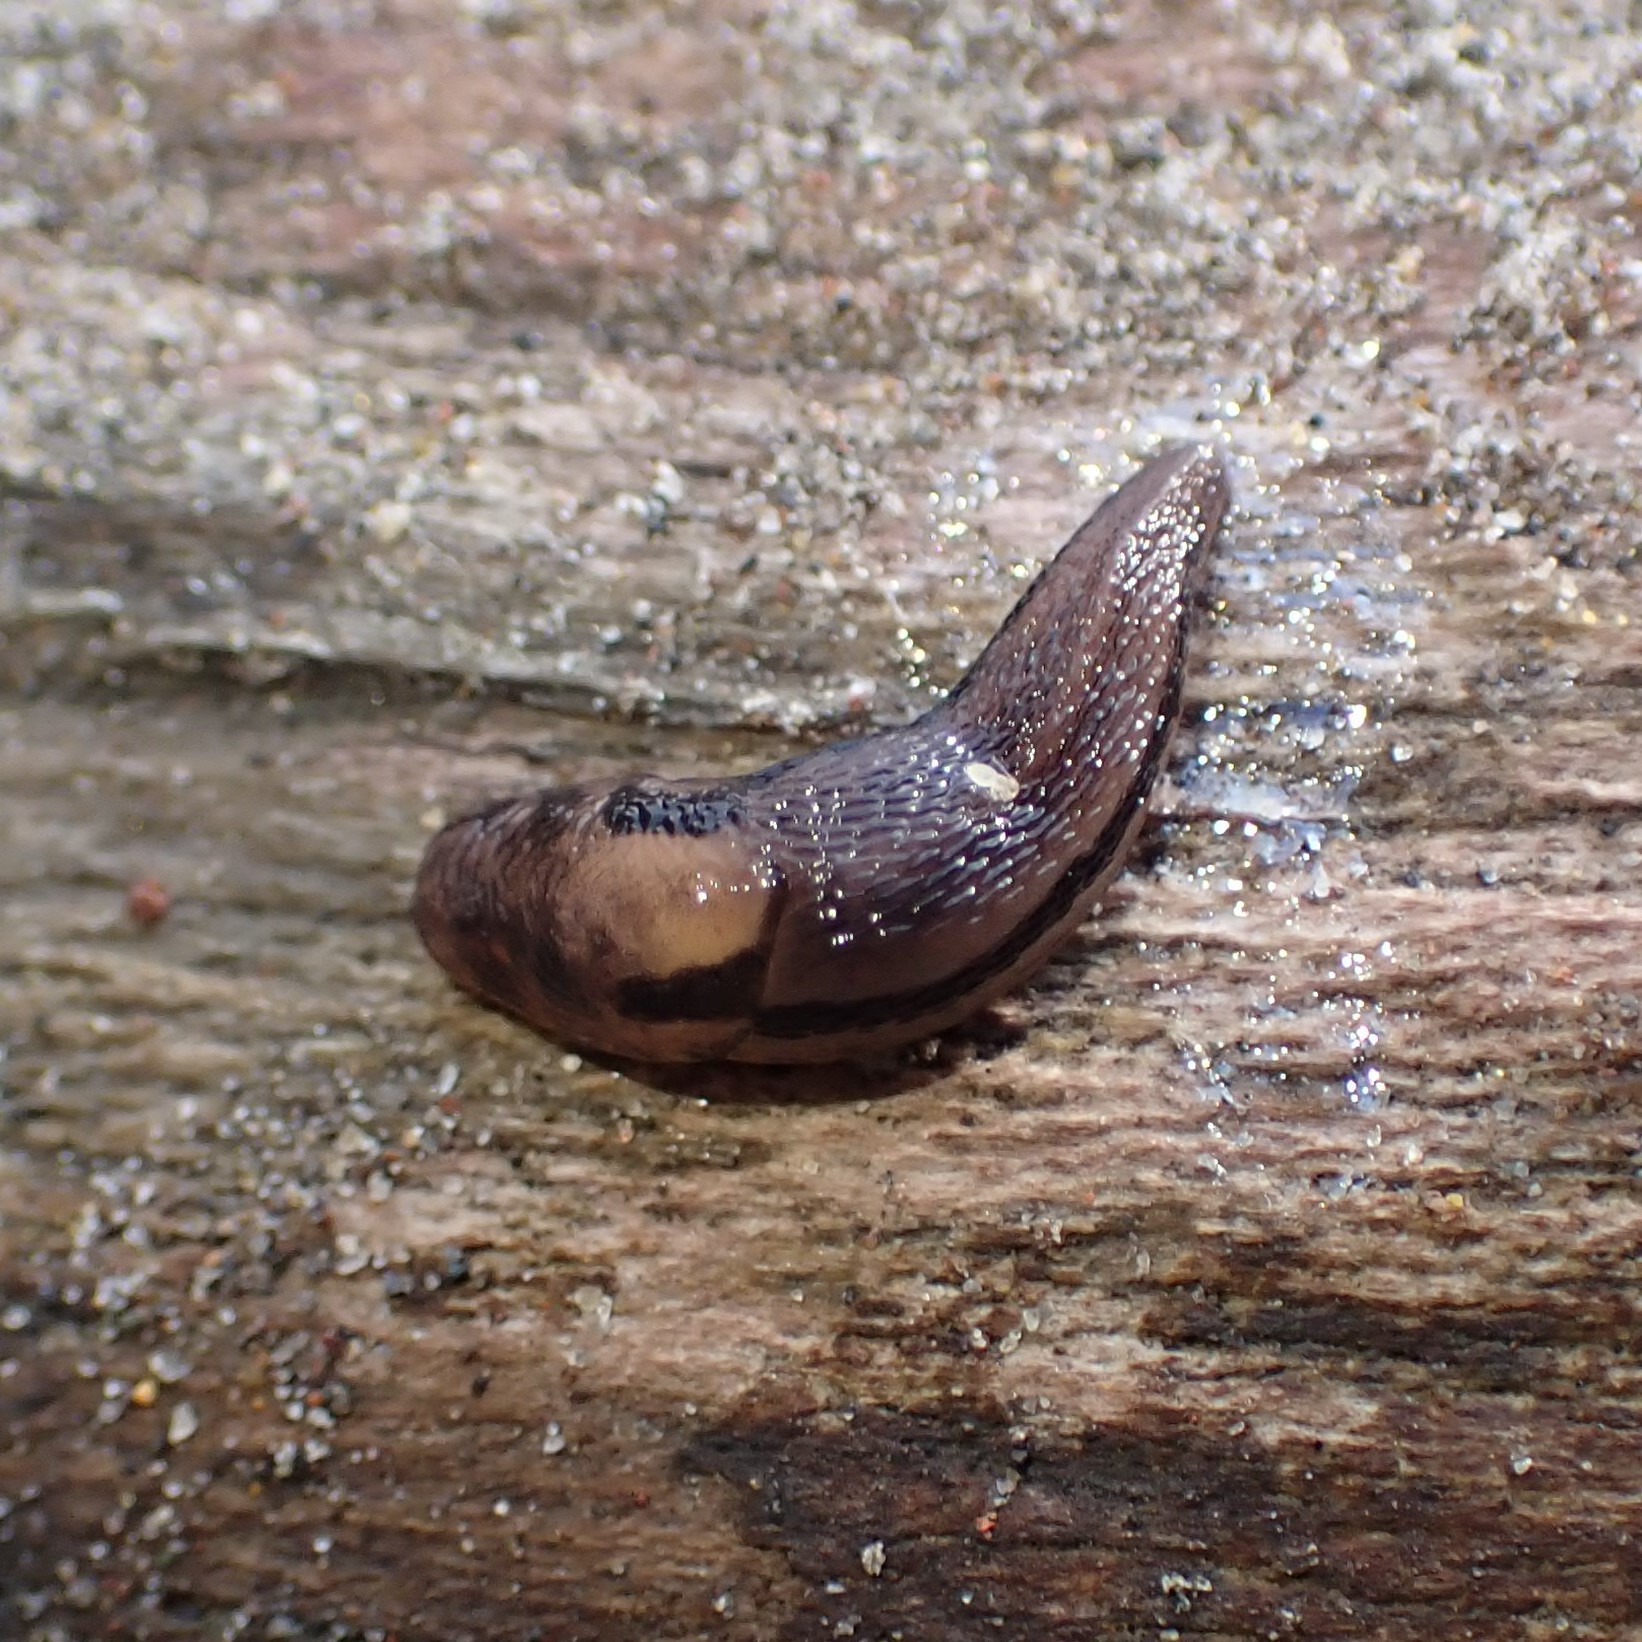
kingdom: Animalia
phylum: Mollusca
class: Gastropoda
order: Stylommatophora
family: Limacidae
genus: Ambigolimax
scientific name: Ambigolimax
